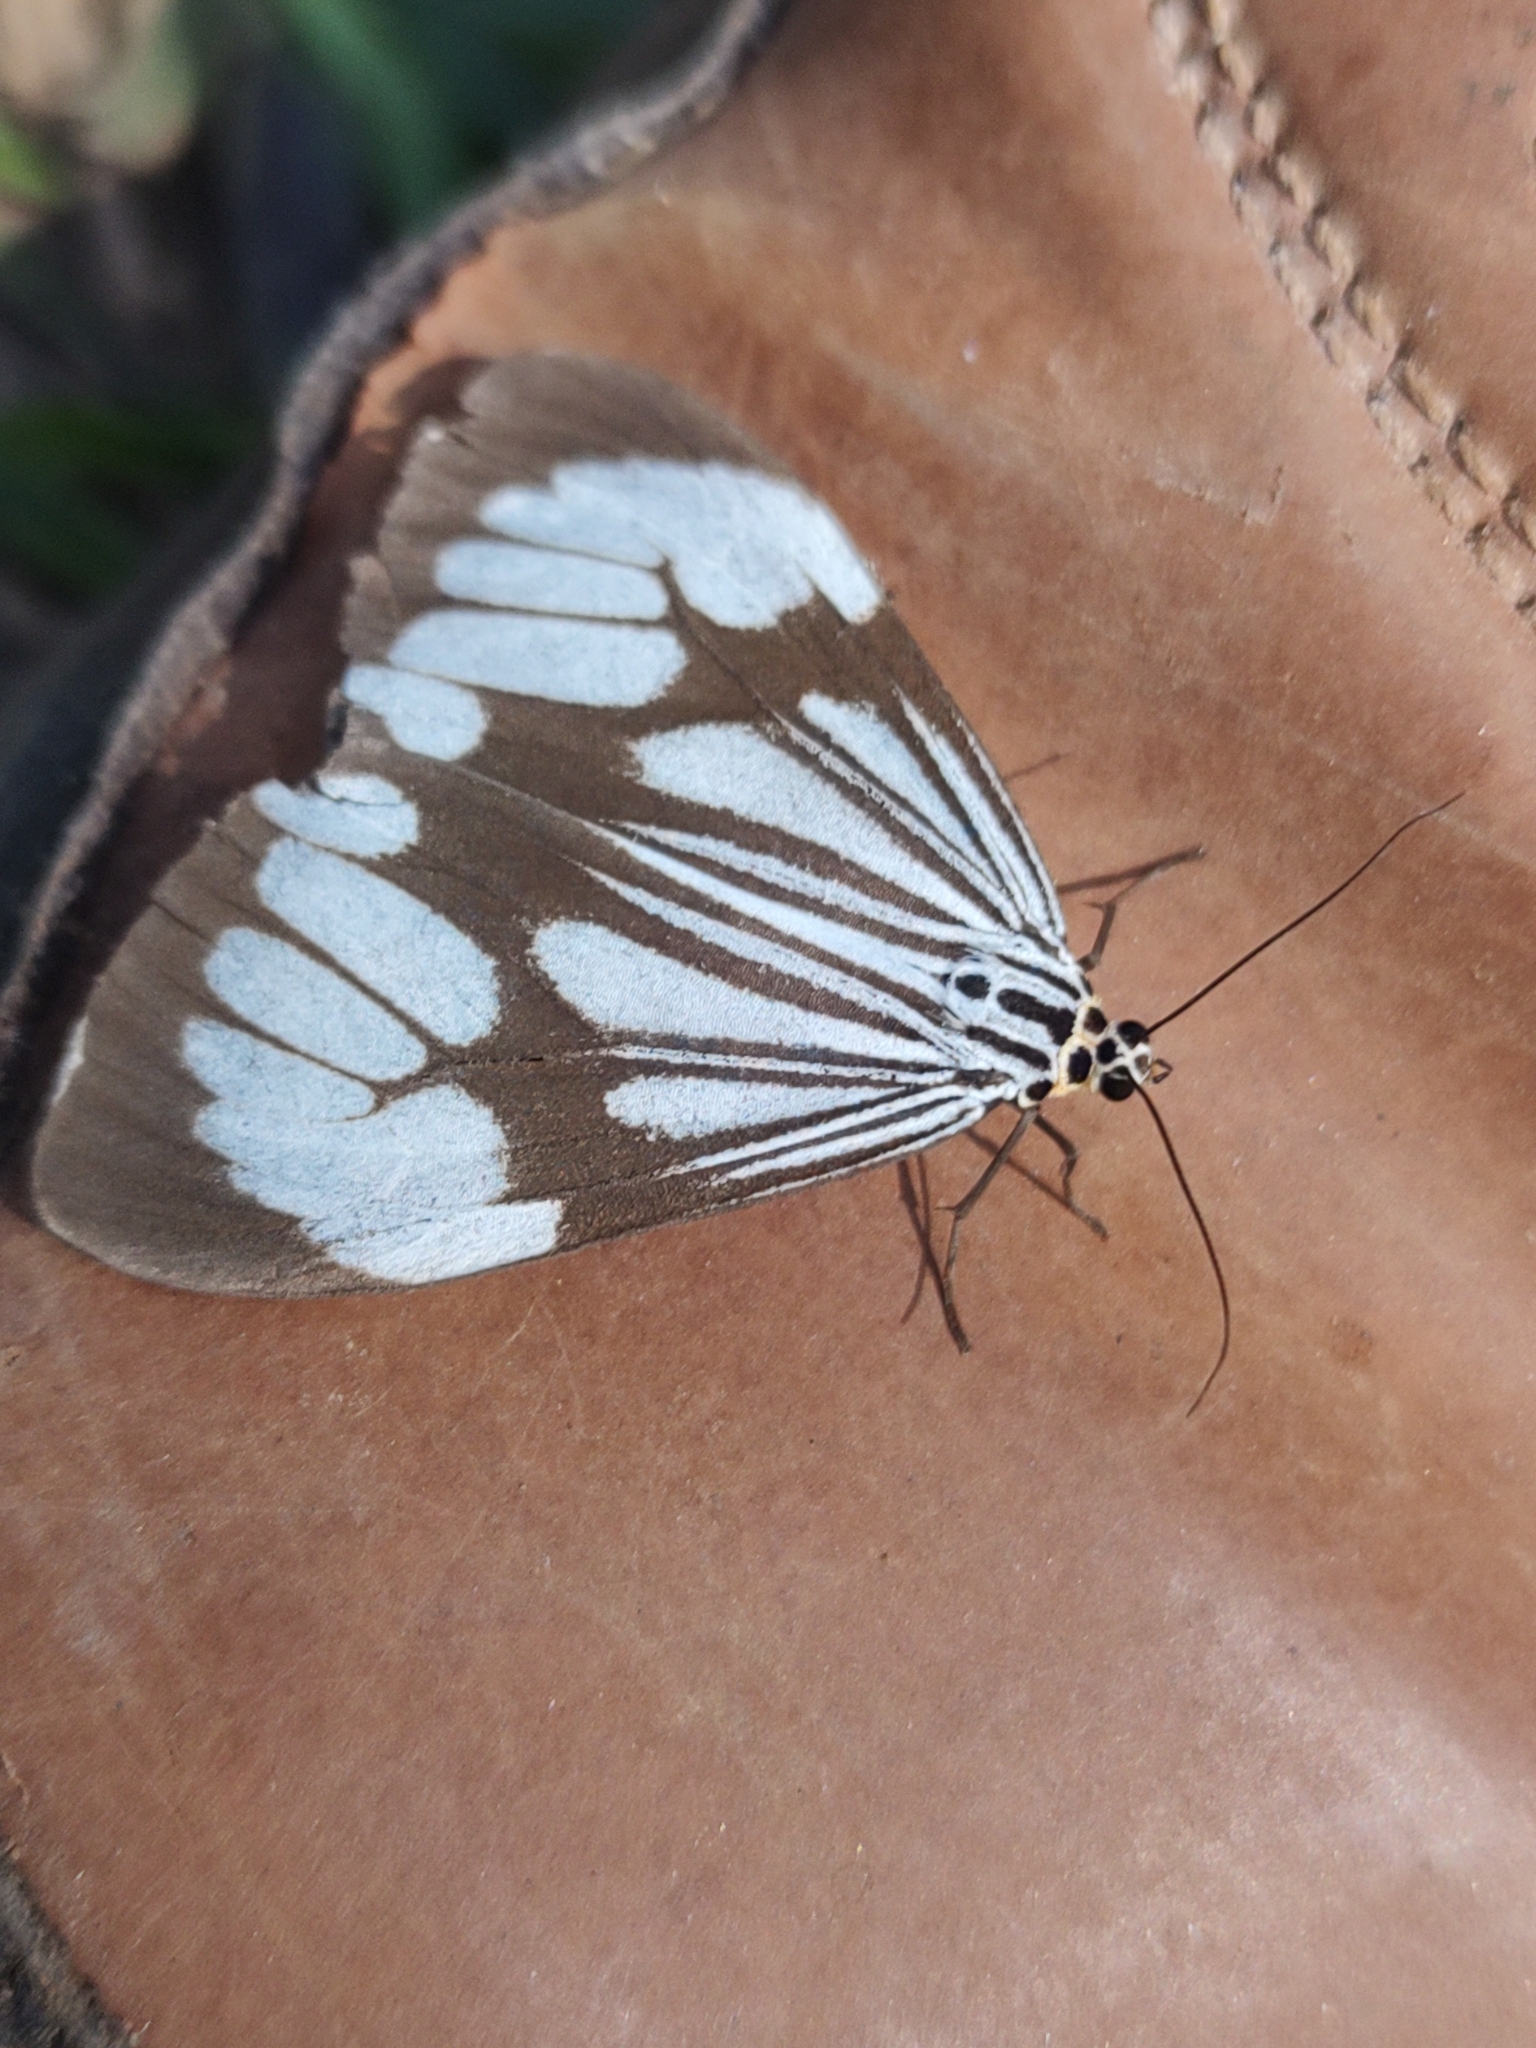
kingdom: Animalia
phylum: Arthropoda
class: Insecta
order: Lepidoptera
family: Erebidae
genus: Nyctemera
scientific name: Nyctemera coleta
